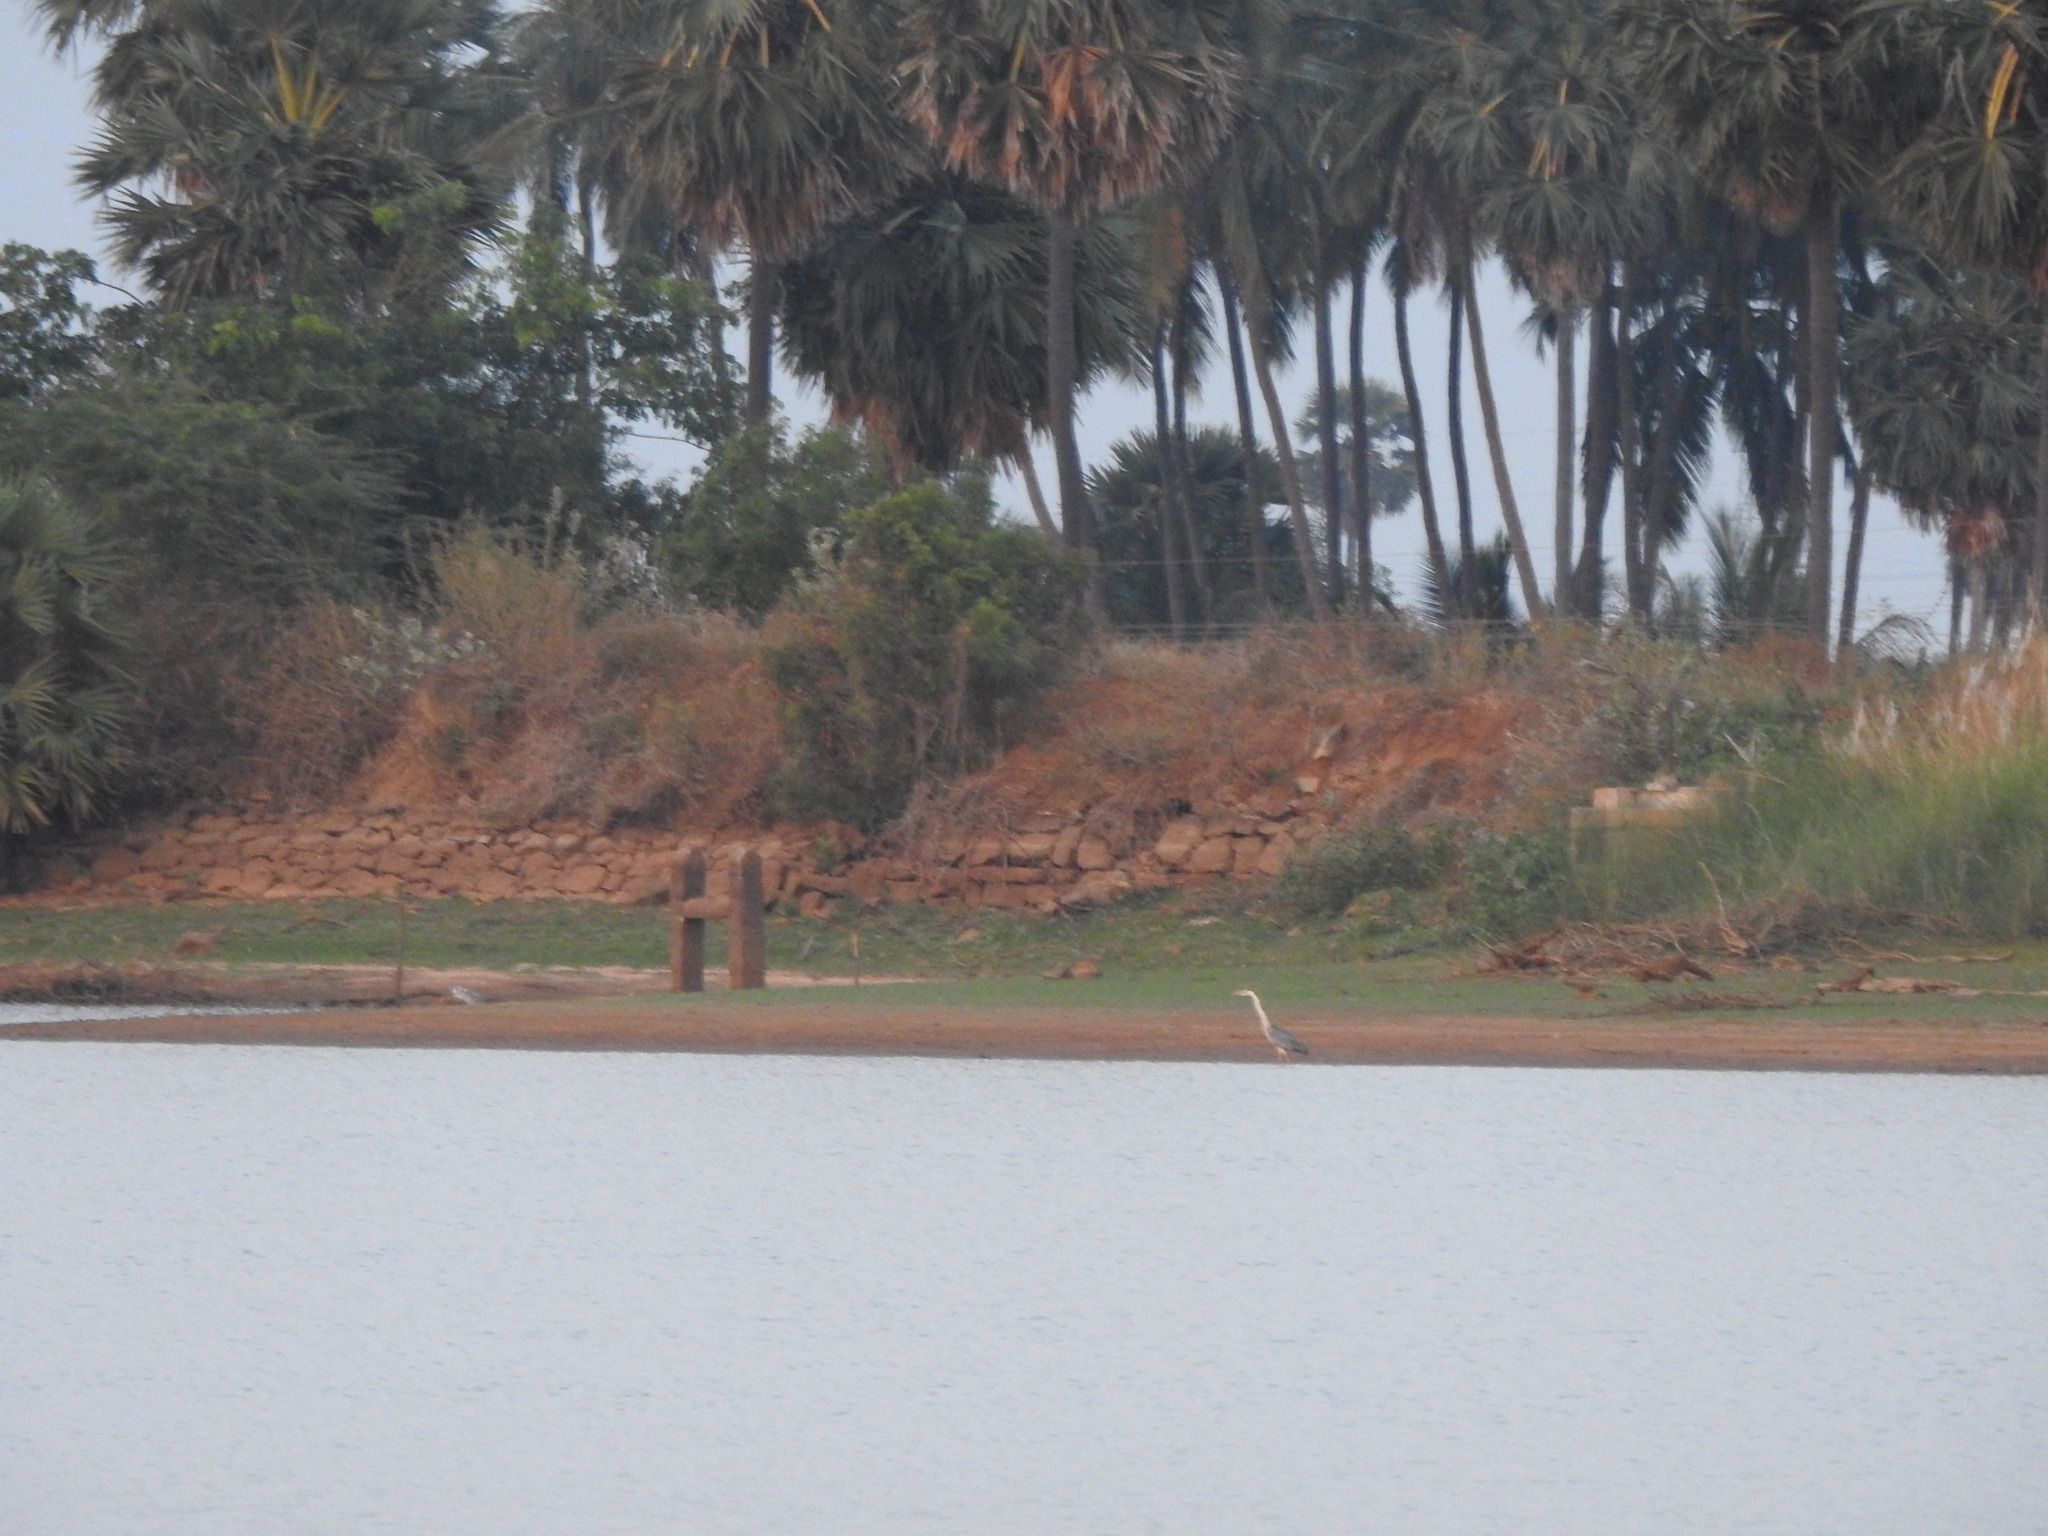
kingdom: Animalia
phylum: Chordata
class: Aves
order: Pelecaniformes
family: Ardeidae
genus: Ardea
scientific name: Ardea cinerea
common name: Grey heron
